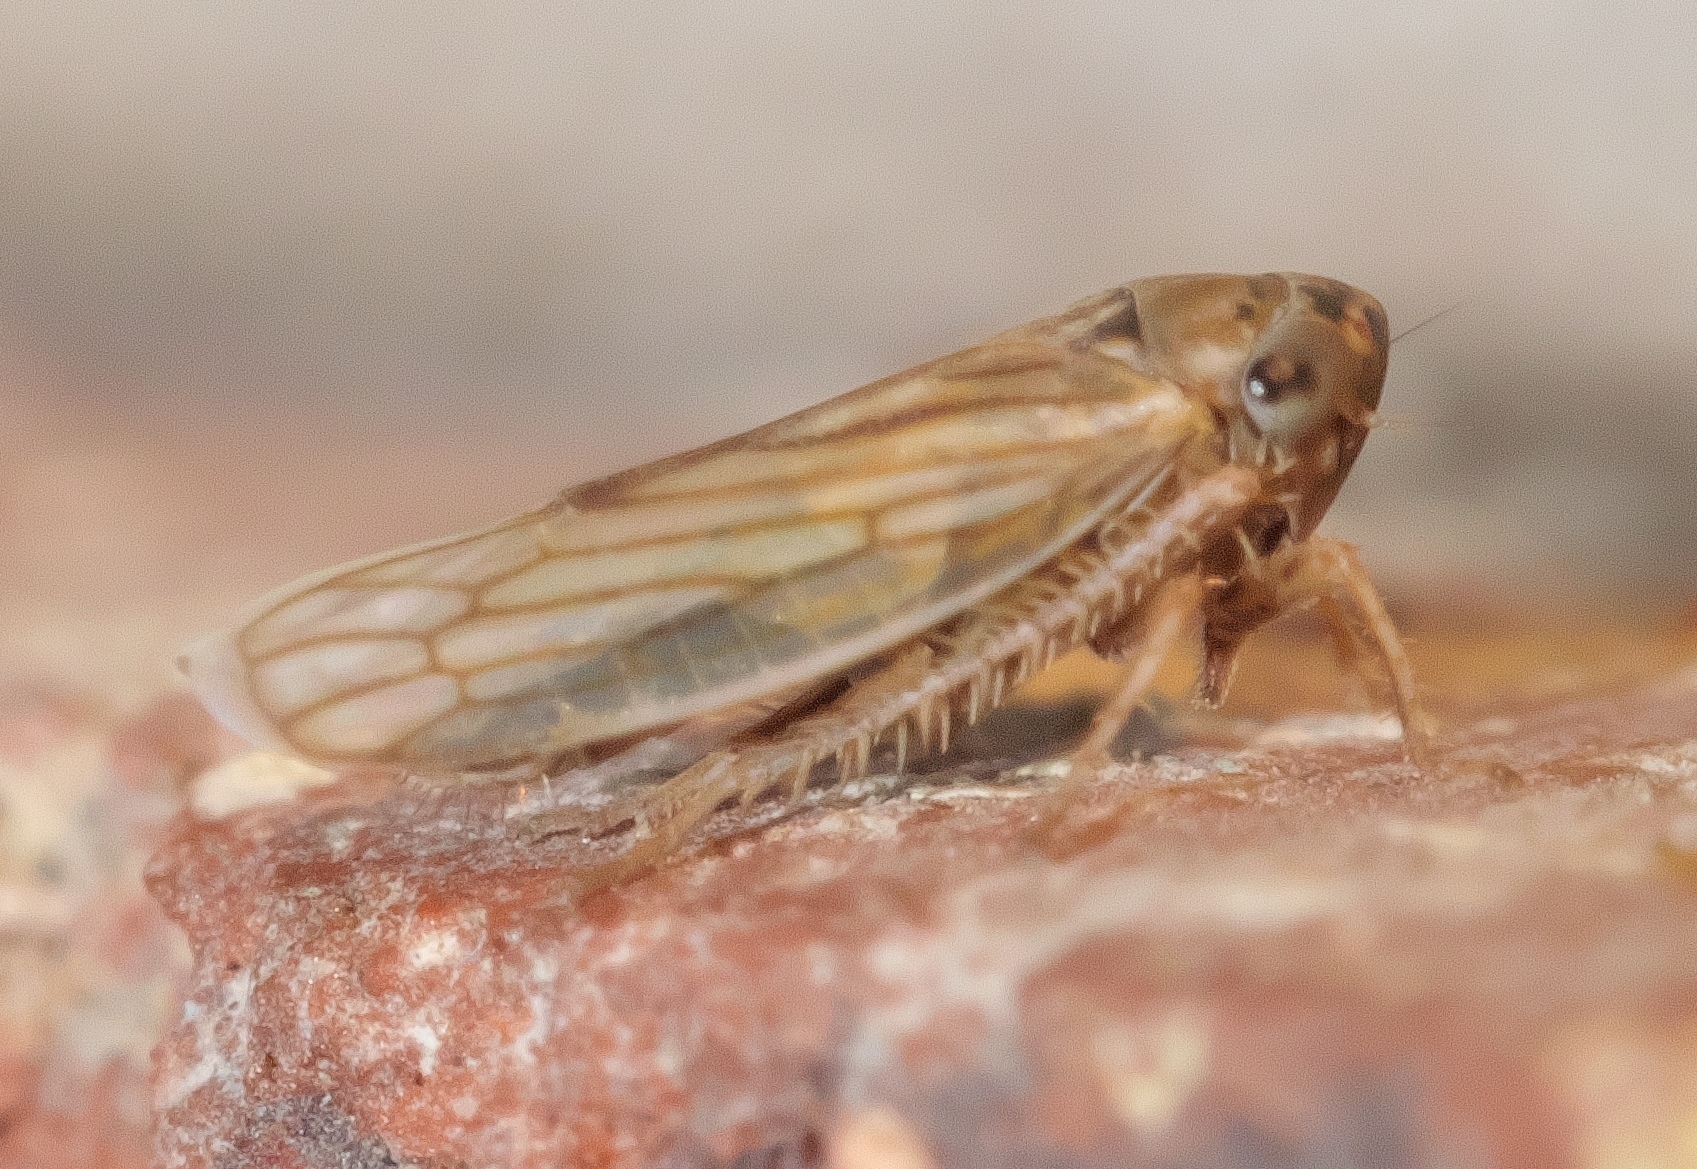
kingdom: Animalia
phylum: Arthropoda
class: Insecta
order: Hemiptera
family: Cicadellidae
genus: Exitianus
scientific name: Exitianus exitiosus
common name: Gray lawn leafhopper
